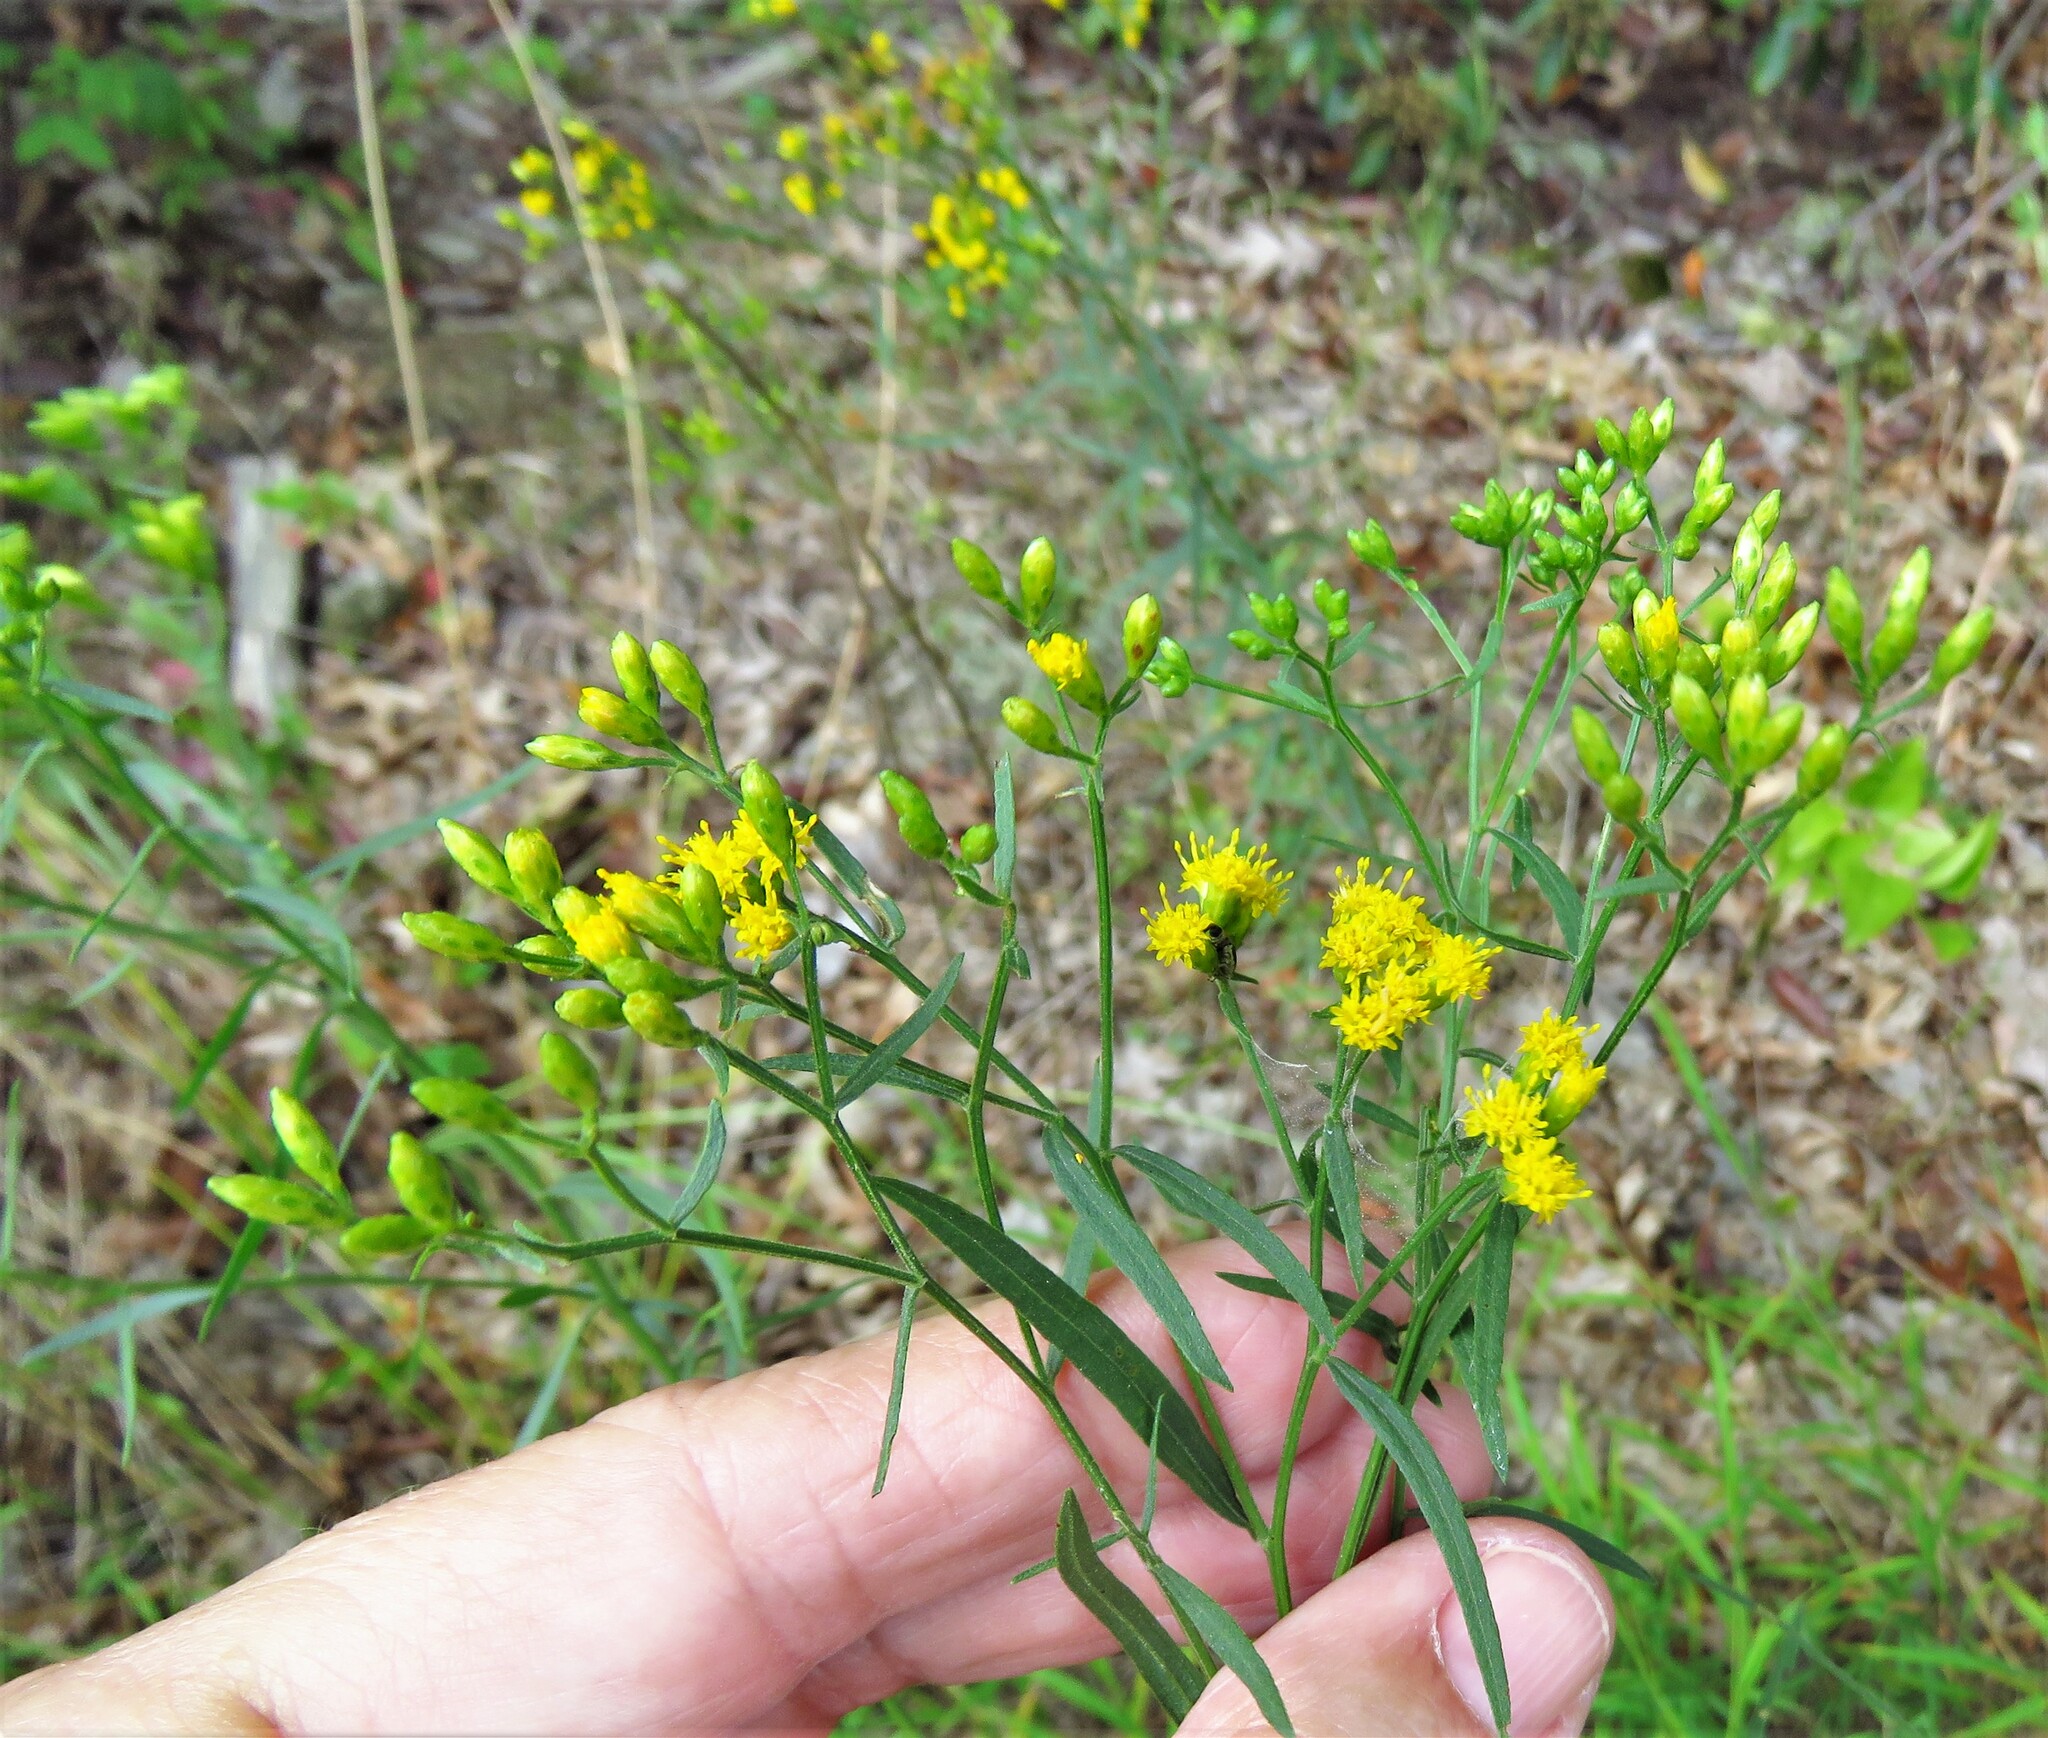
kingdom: Plantae
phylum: Tracheophyta
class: Magnoliopsida
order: Asterales
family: Asteraceae
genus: Euthamia
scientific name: Euthamia caroliniana
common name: Coastal plain goldentop
